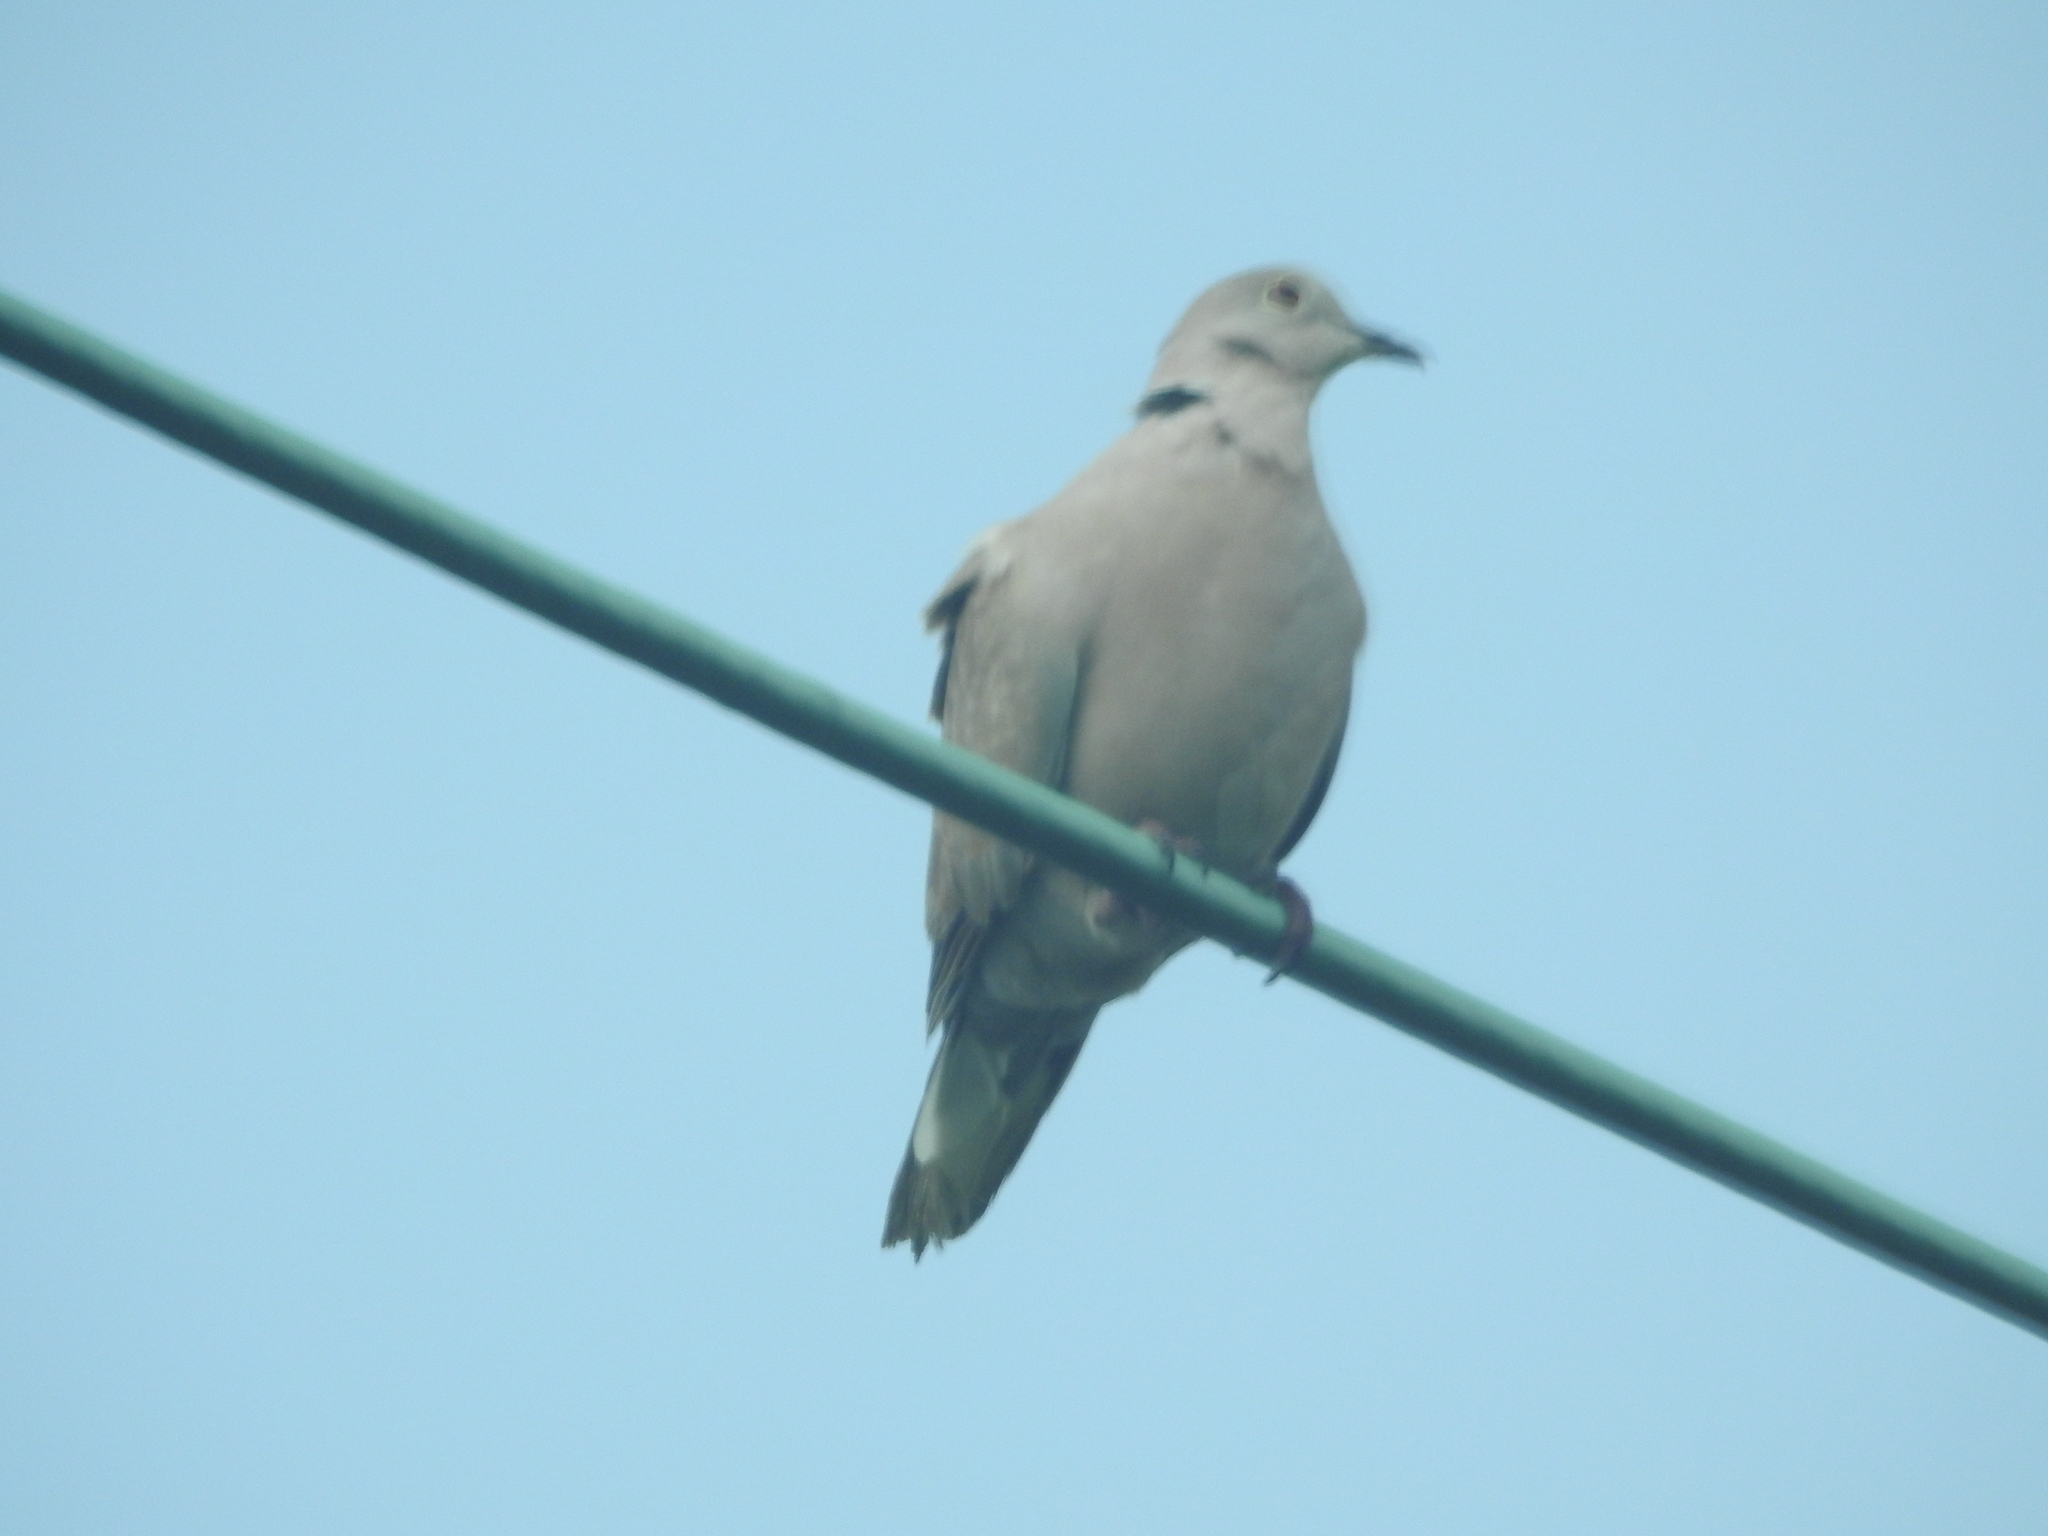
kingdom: Animalia
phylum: Chordata
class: Aves
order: Columbiformes
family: Columbidae
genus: Streptopelia
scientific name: Streptopelia decaocto
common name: Eurasian collared dove
